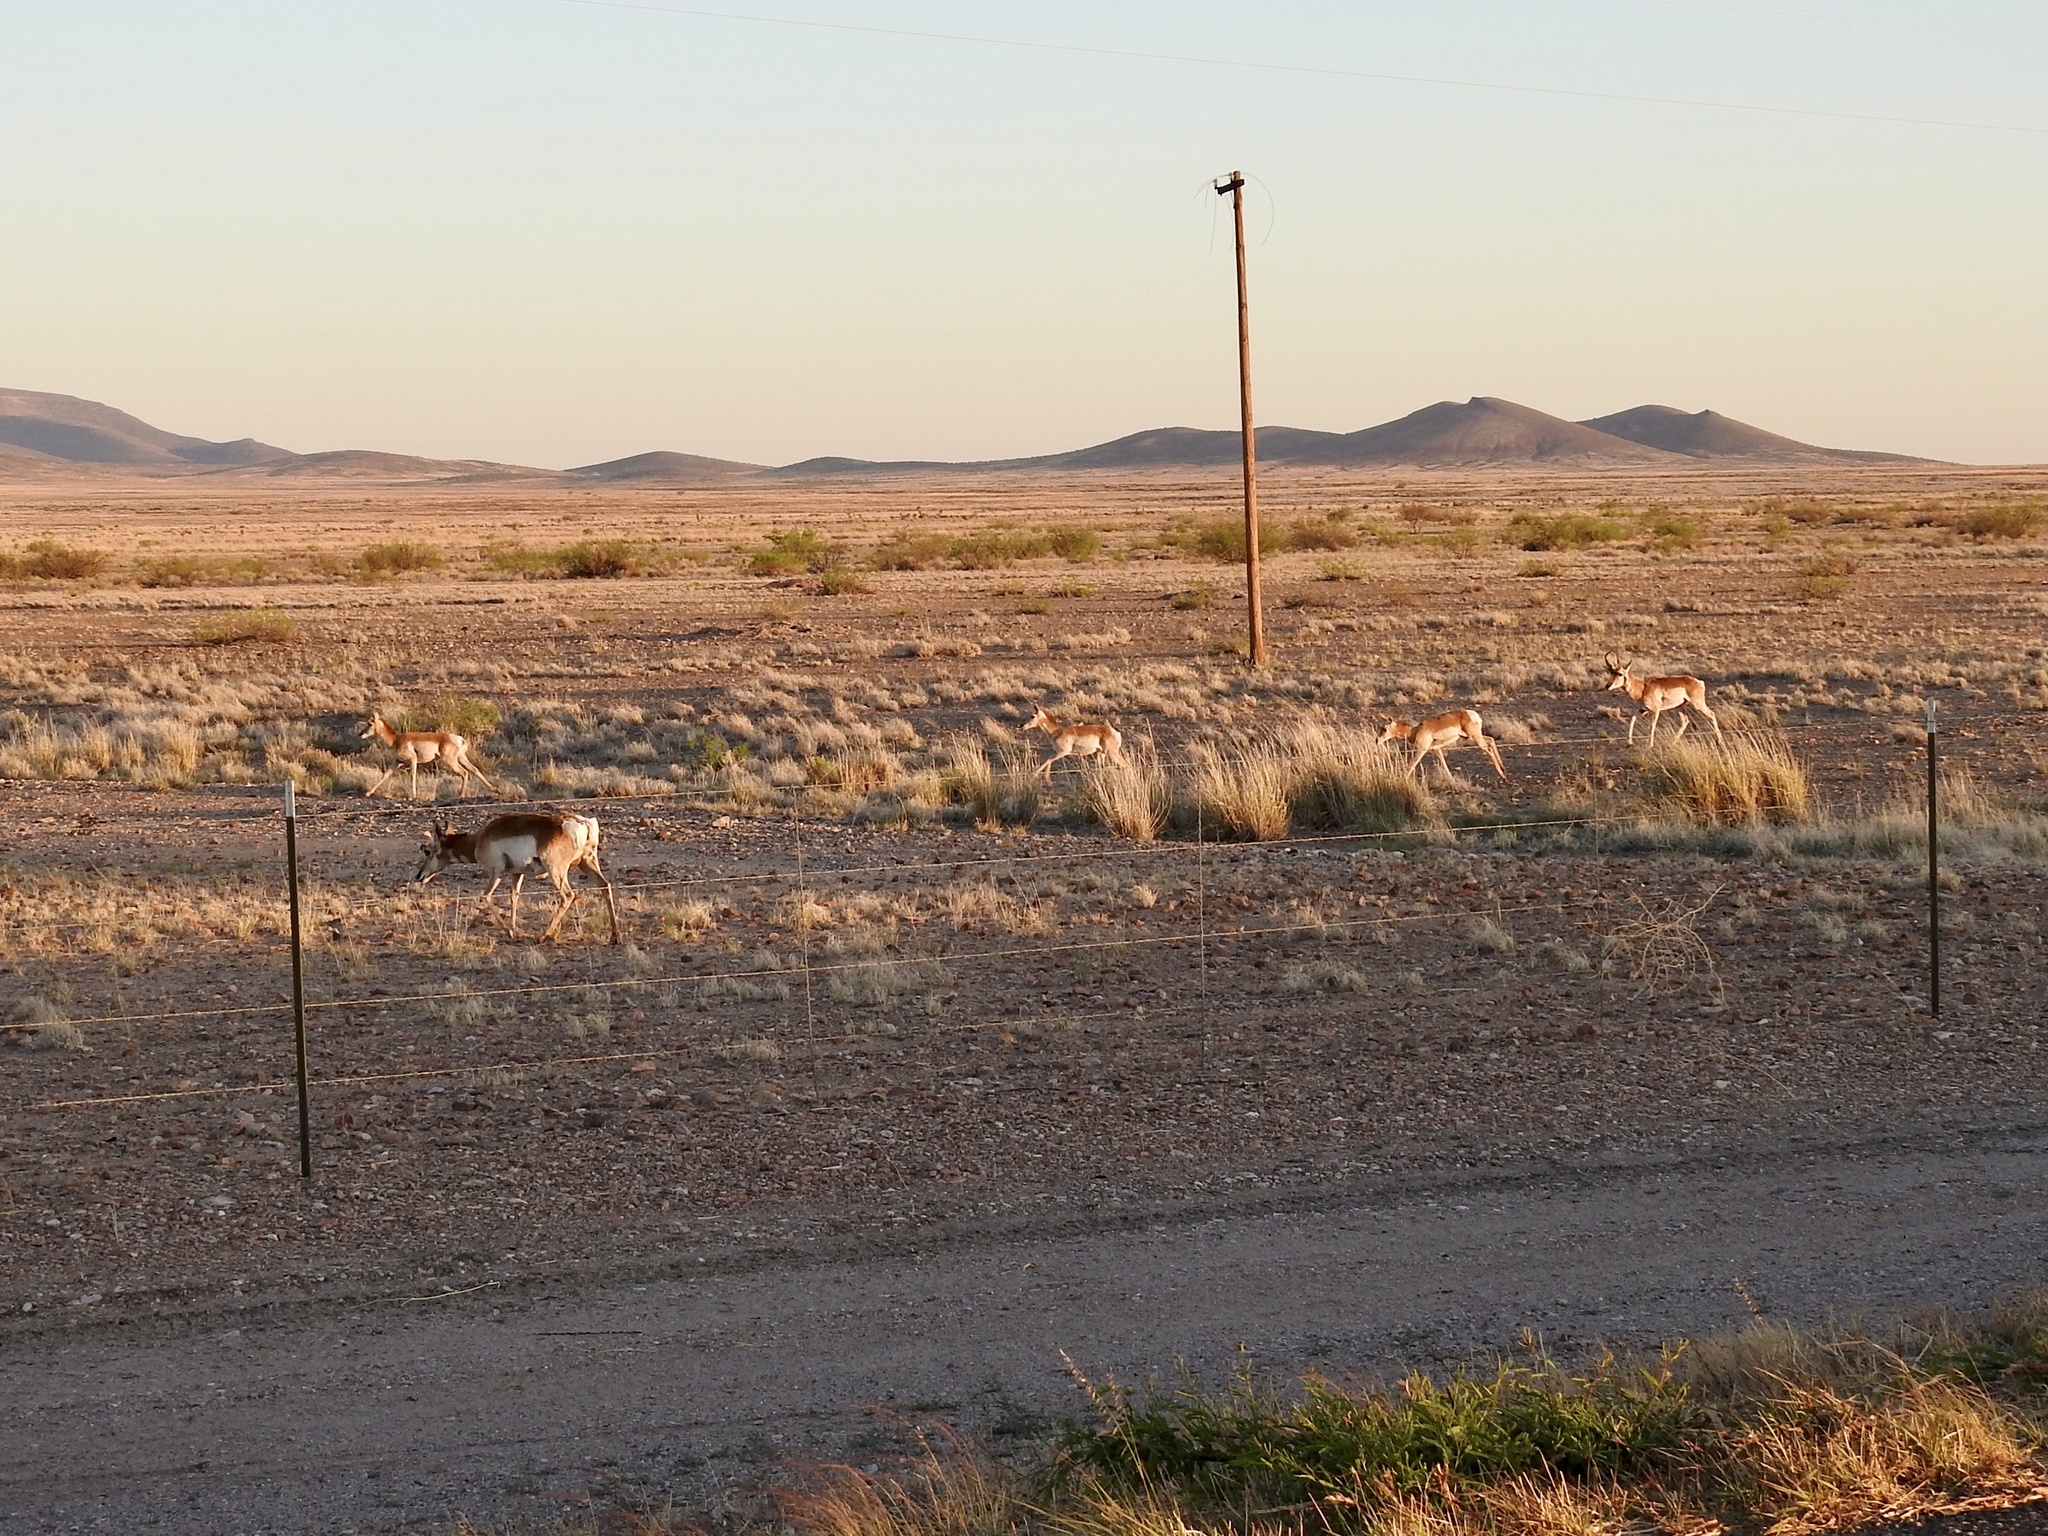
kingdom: Animalia
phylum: Chordata
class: Mammalia
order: Artiodactyla
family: Antilocapridae
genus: Antilocapra
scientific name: Antilocapra americana
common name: Pronghorn
